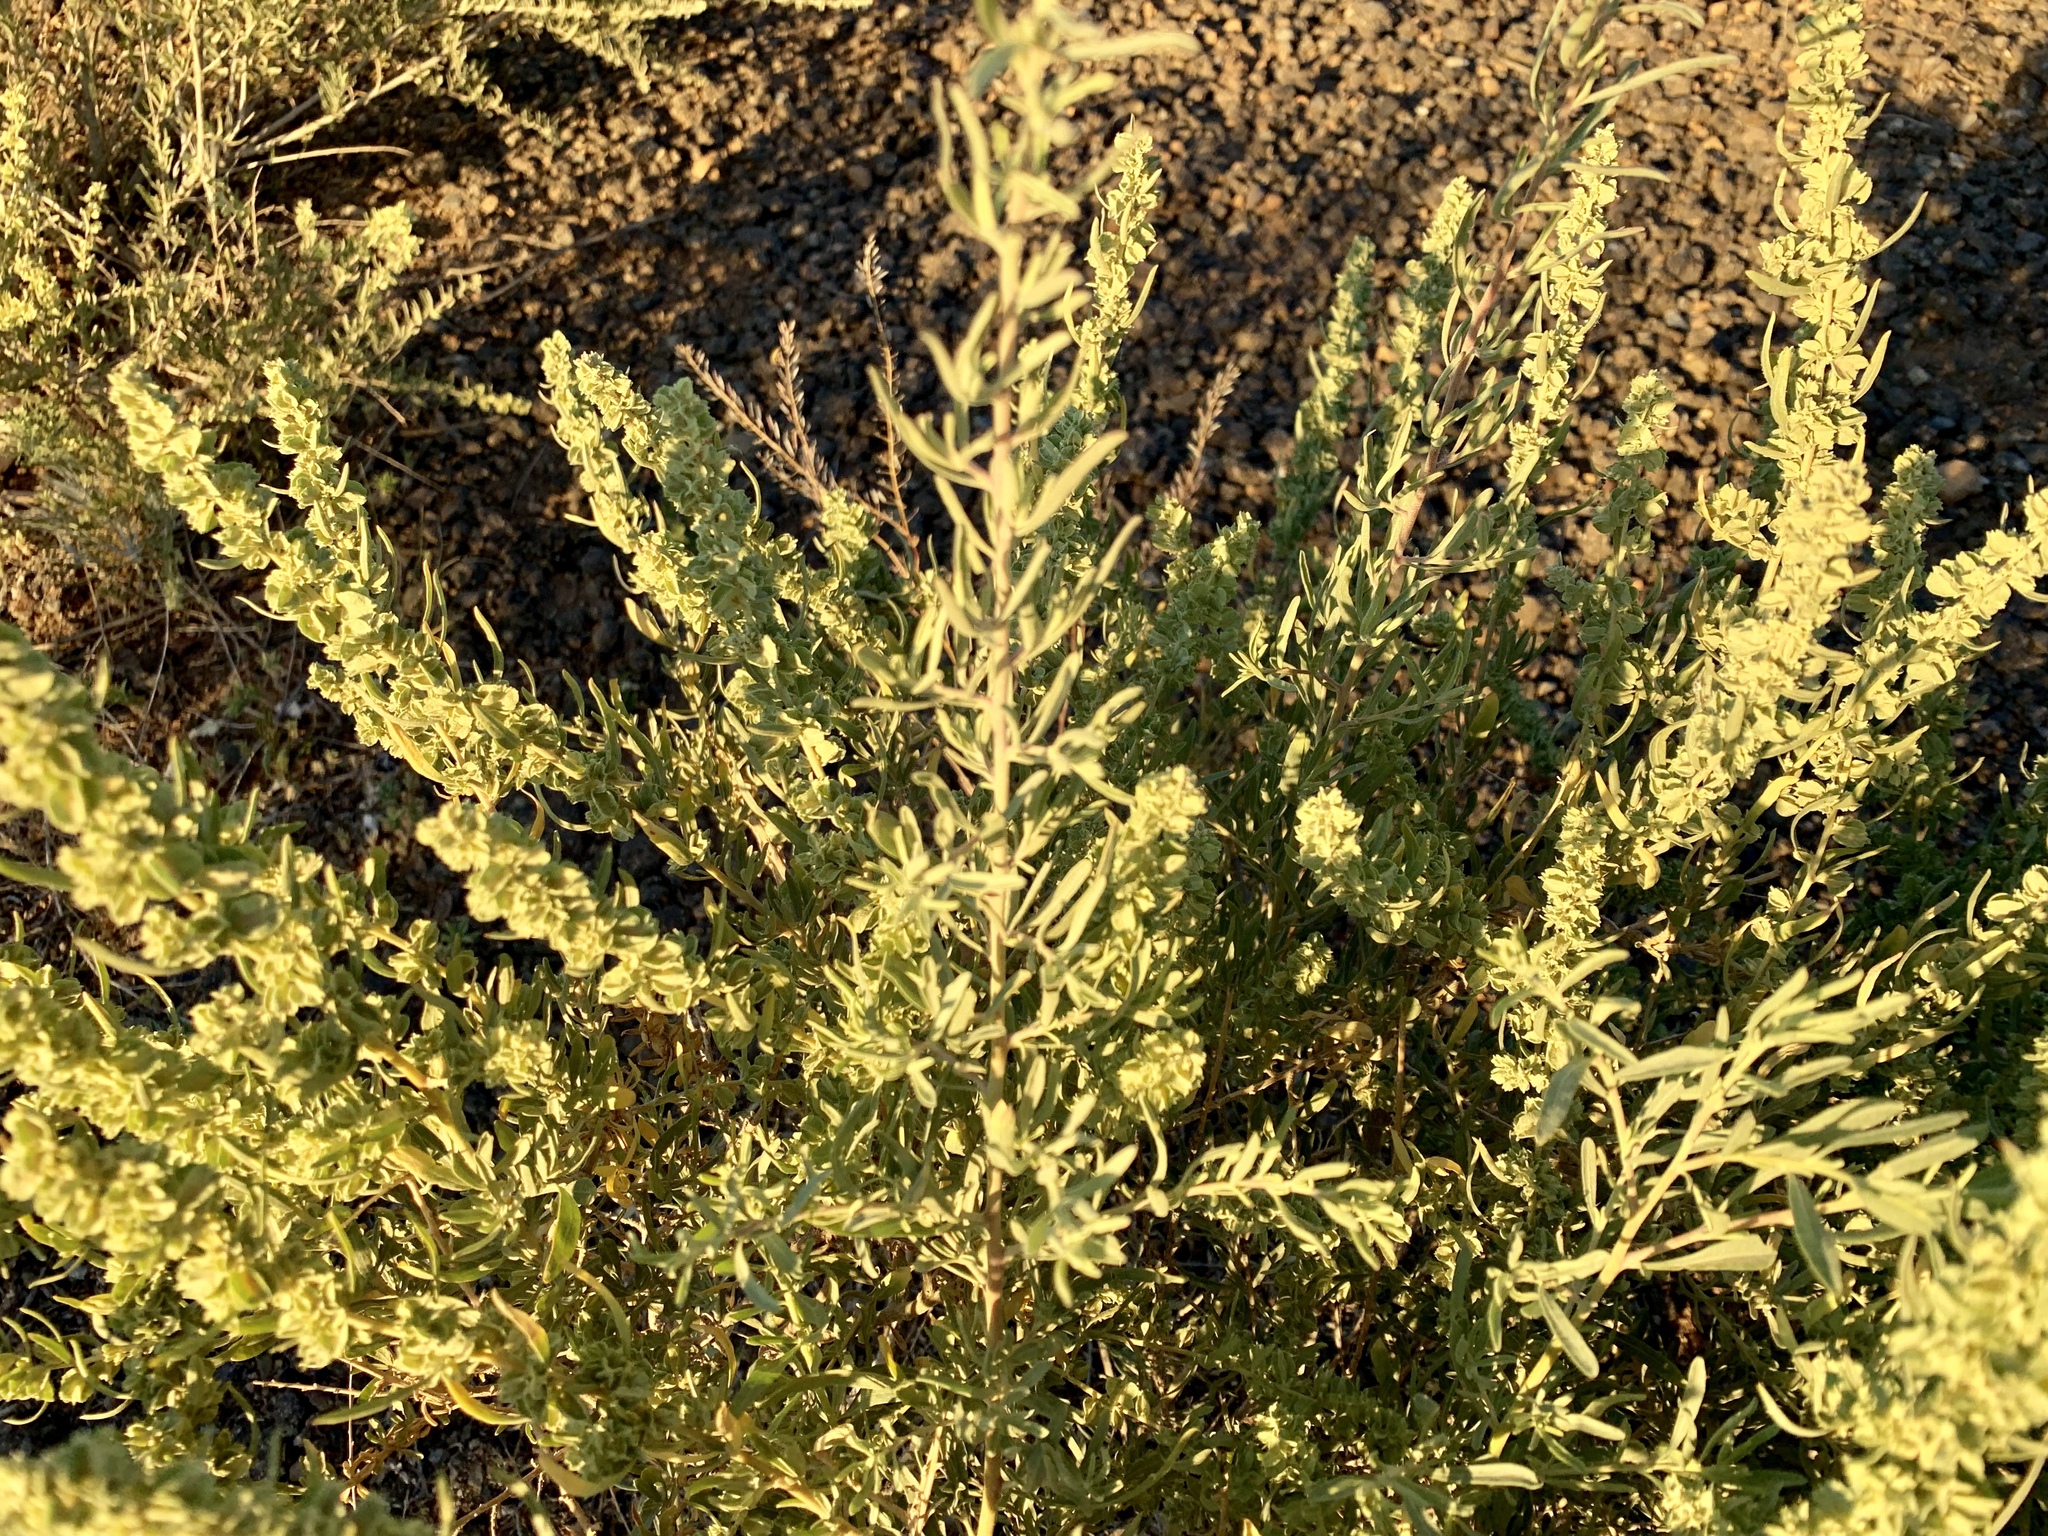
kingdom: Plantae
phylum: Tracheophyta
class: Magnoliopsida
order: Caryophyllales
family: Amaranthaceae
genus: Atriplex
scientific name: Atriplex canescens
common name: Four-wing saltbush
